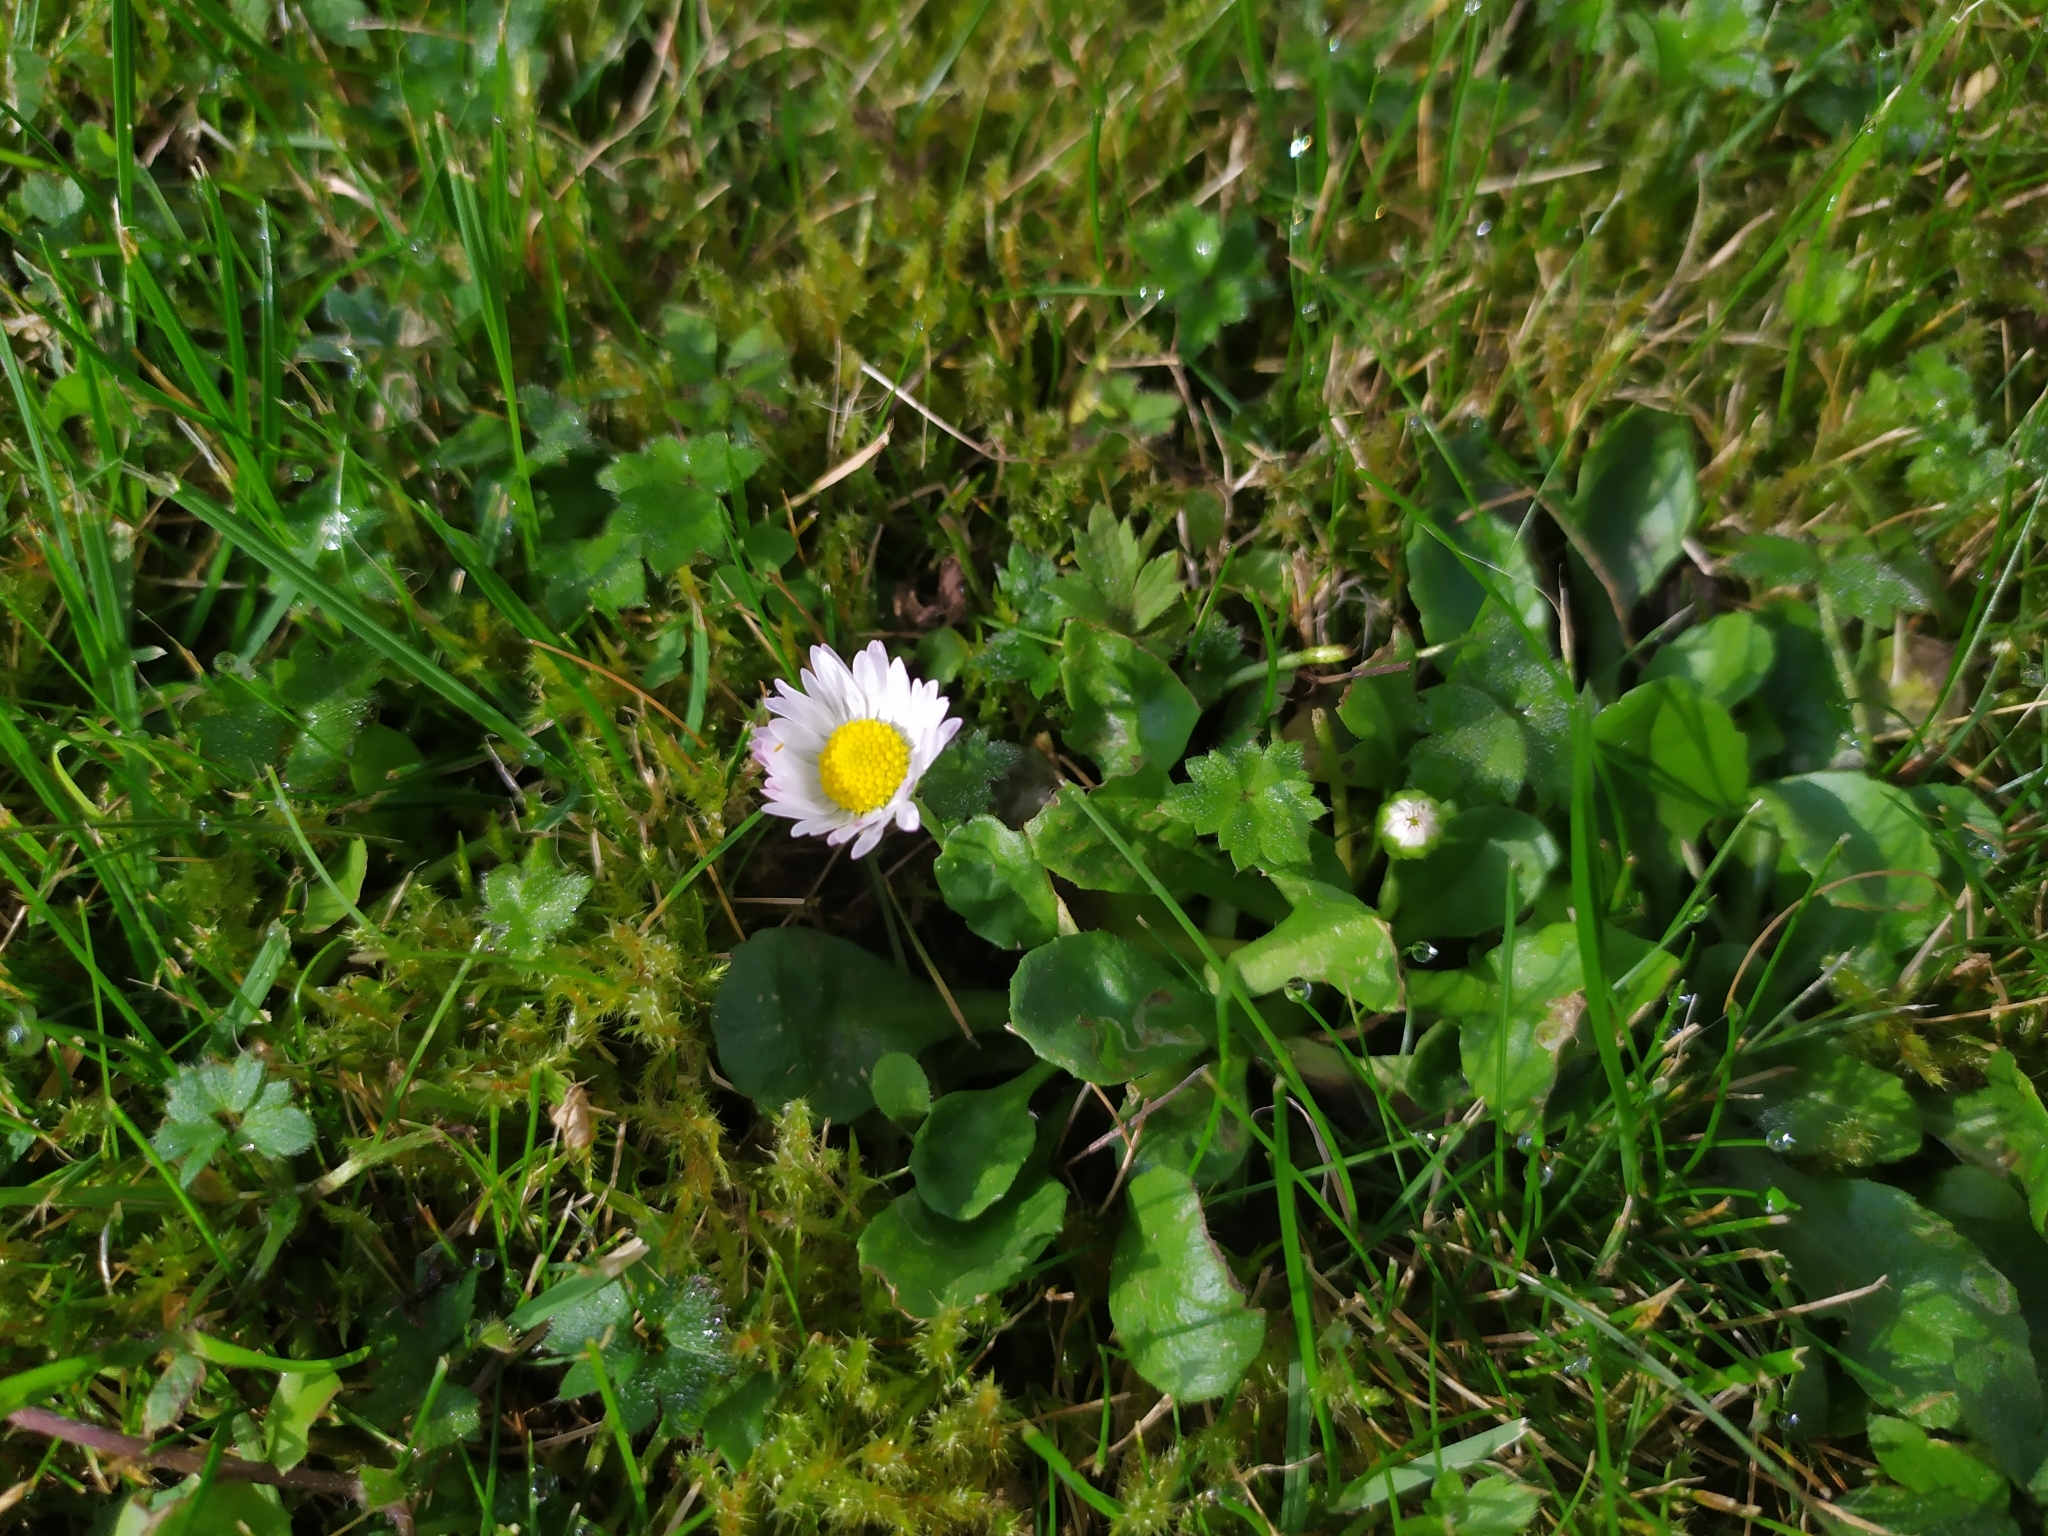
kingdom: Plantae
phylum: Tracheophyta
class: Magnoliopsida
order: Asterales
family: Asteraceae
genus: Bellis
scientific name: Bellis perennis
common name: Lawndaisy
